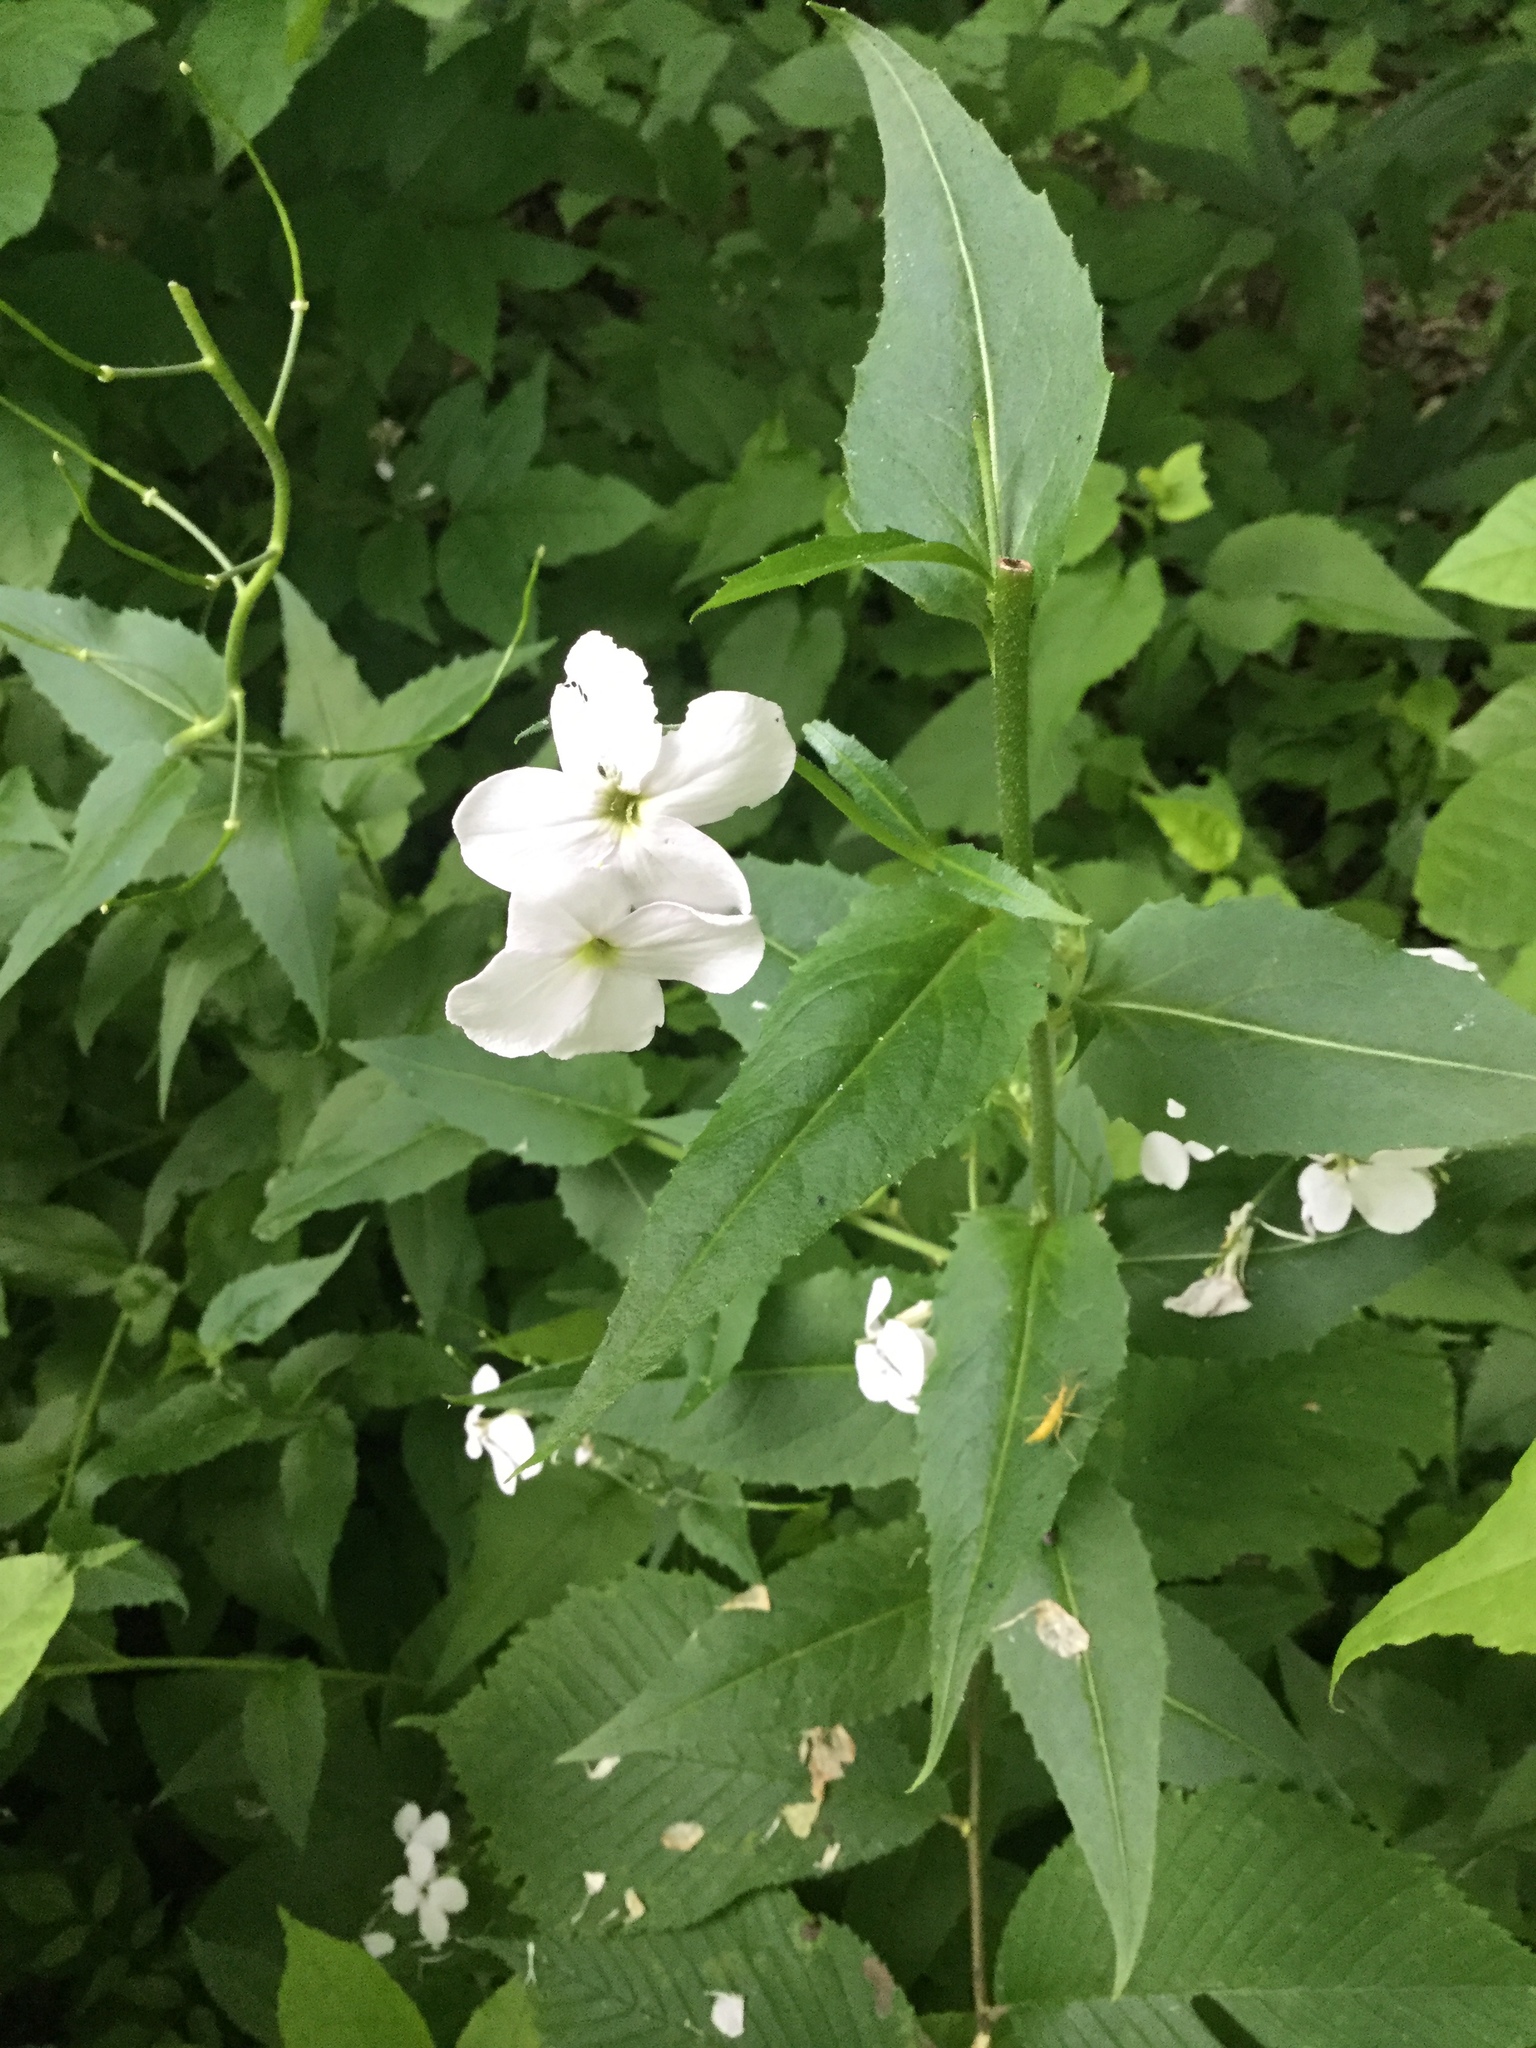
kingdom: Plantae
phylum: Tracheophyta
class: Magnoliopsida
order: Brassicales
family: Brassicaceae
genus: Hesperis
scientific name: Hesperis matronalis
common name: Dame's-violet
